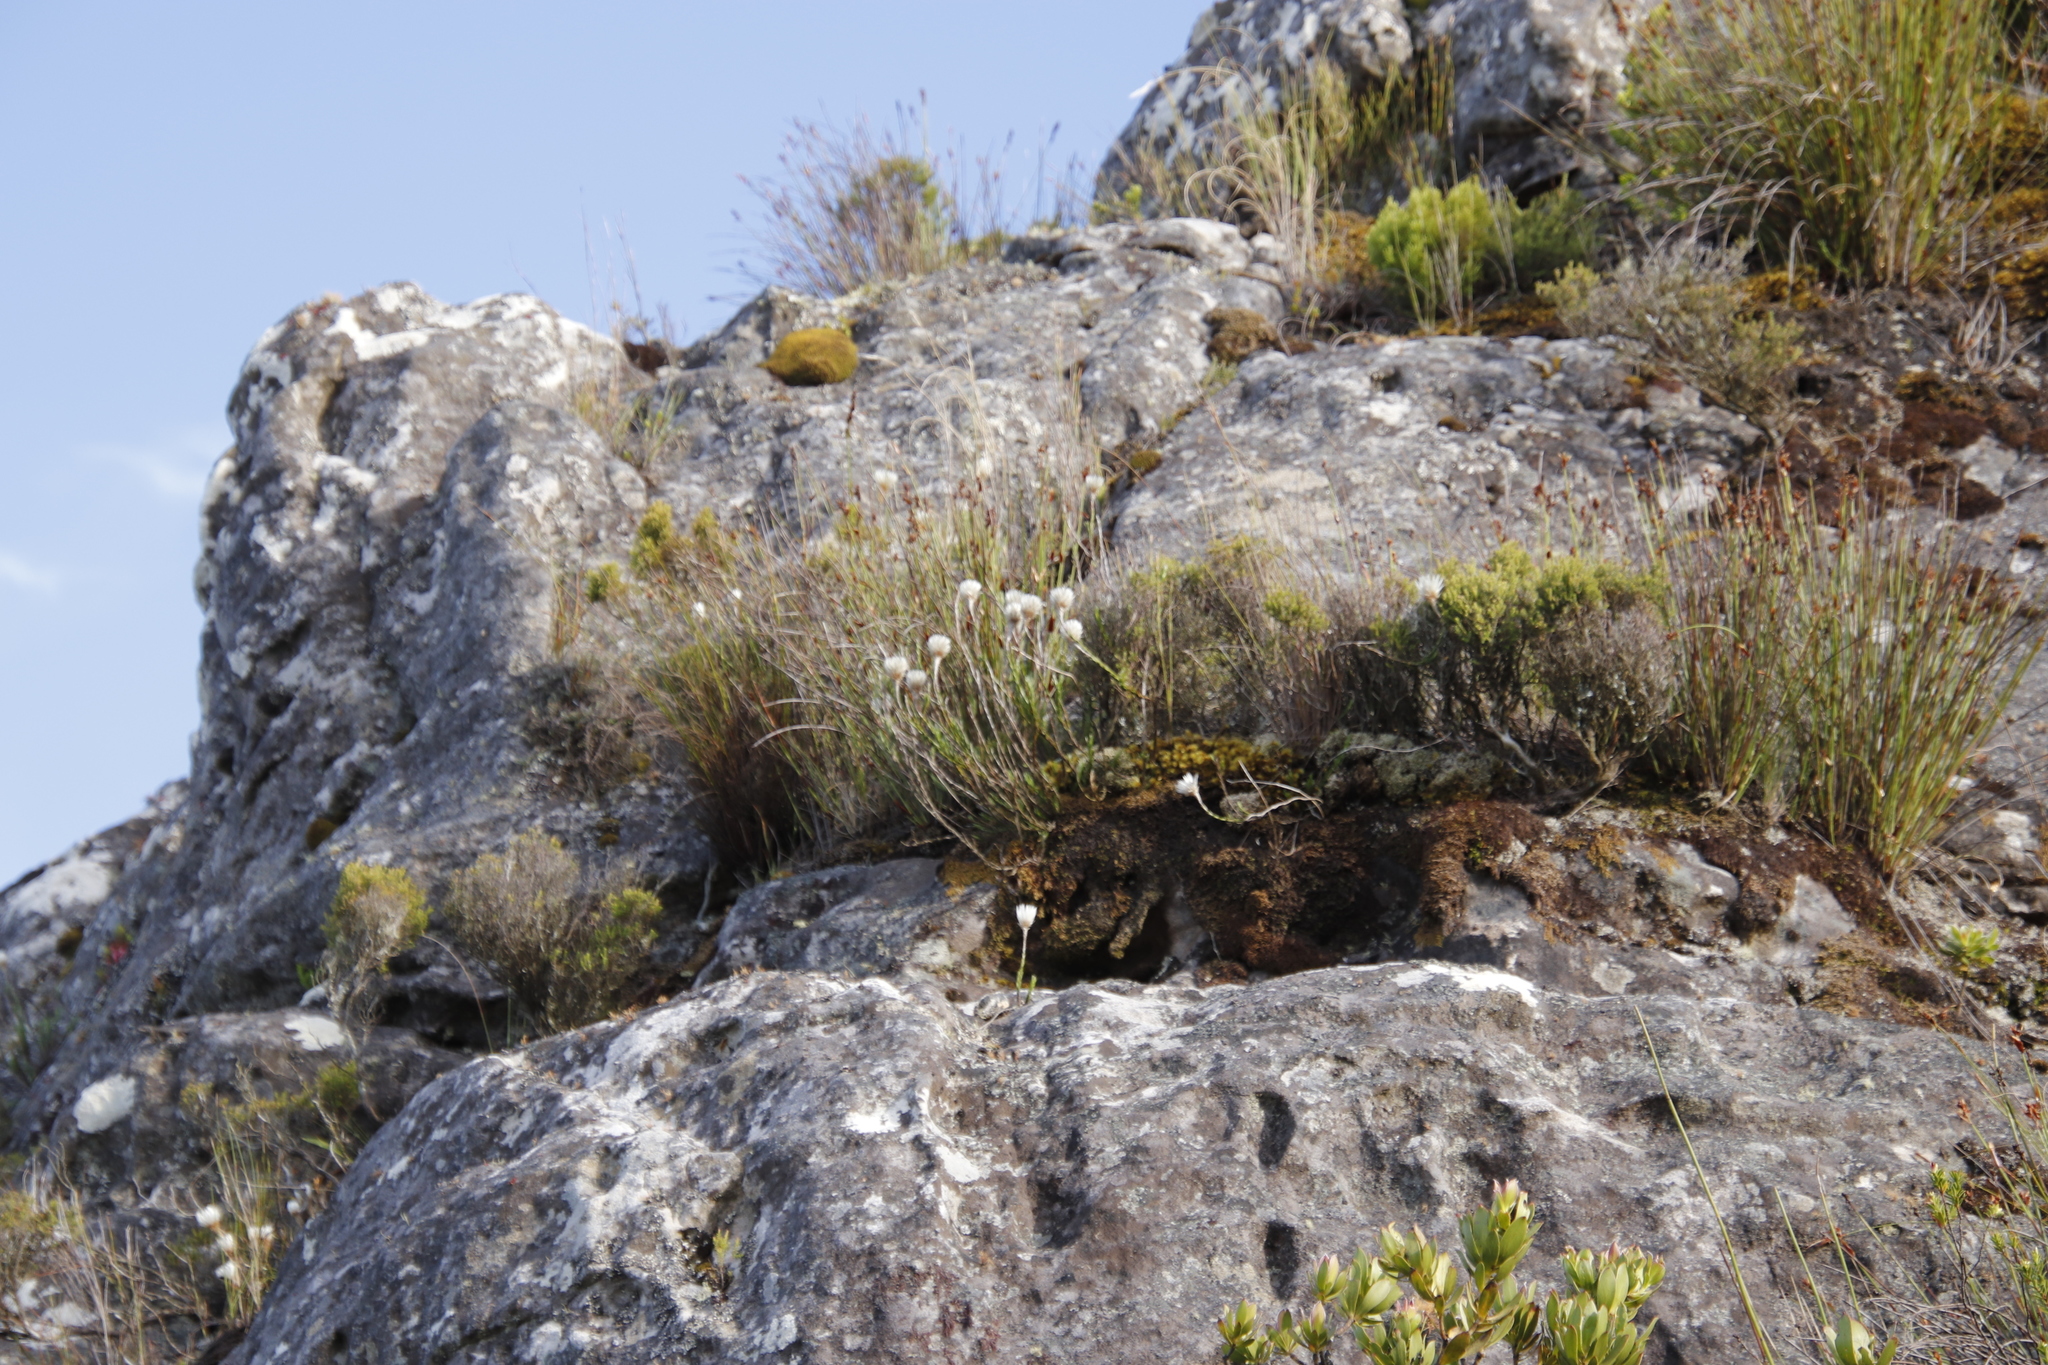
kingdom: Plantae
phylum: Tracheophyta
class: Magnoliopsida
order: Asterales
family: Asteraceae
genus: Edmondia
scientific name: Edmondia pinifolia
